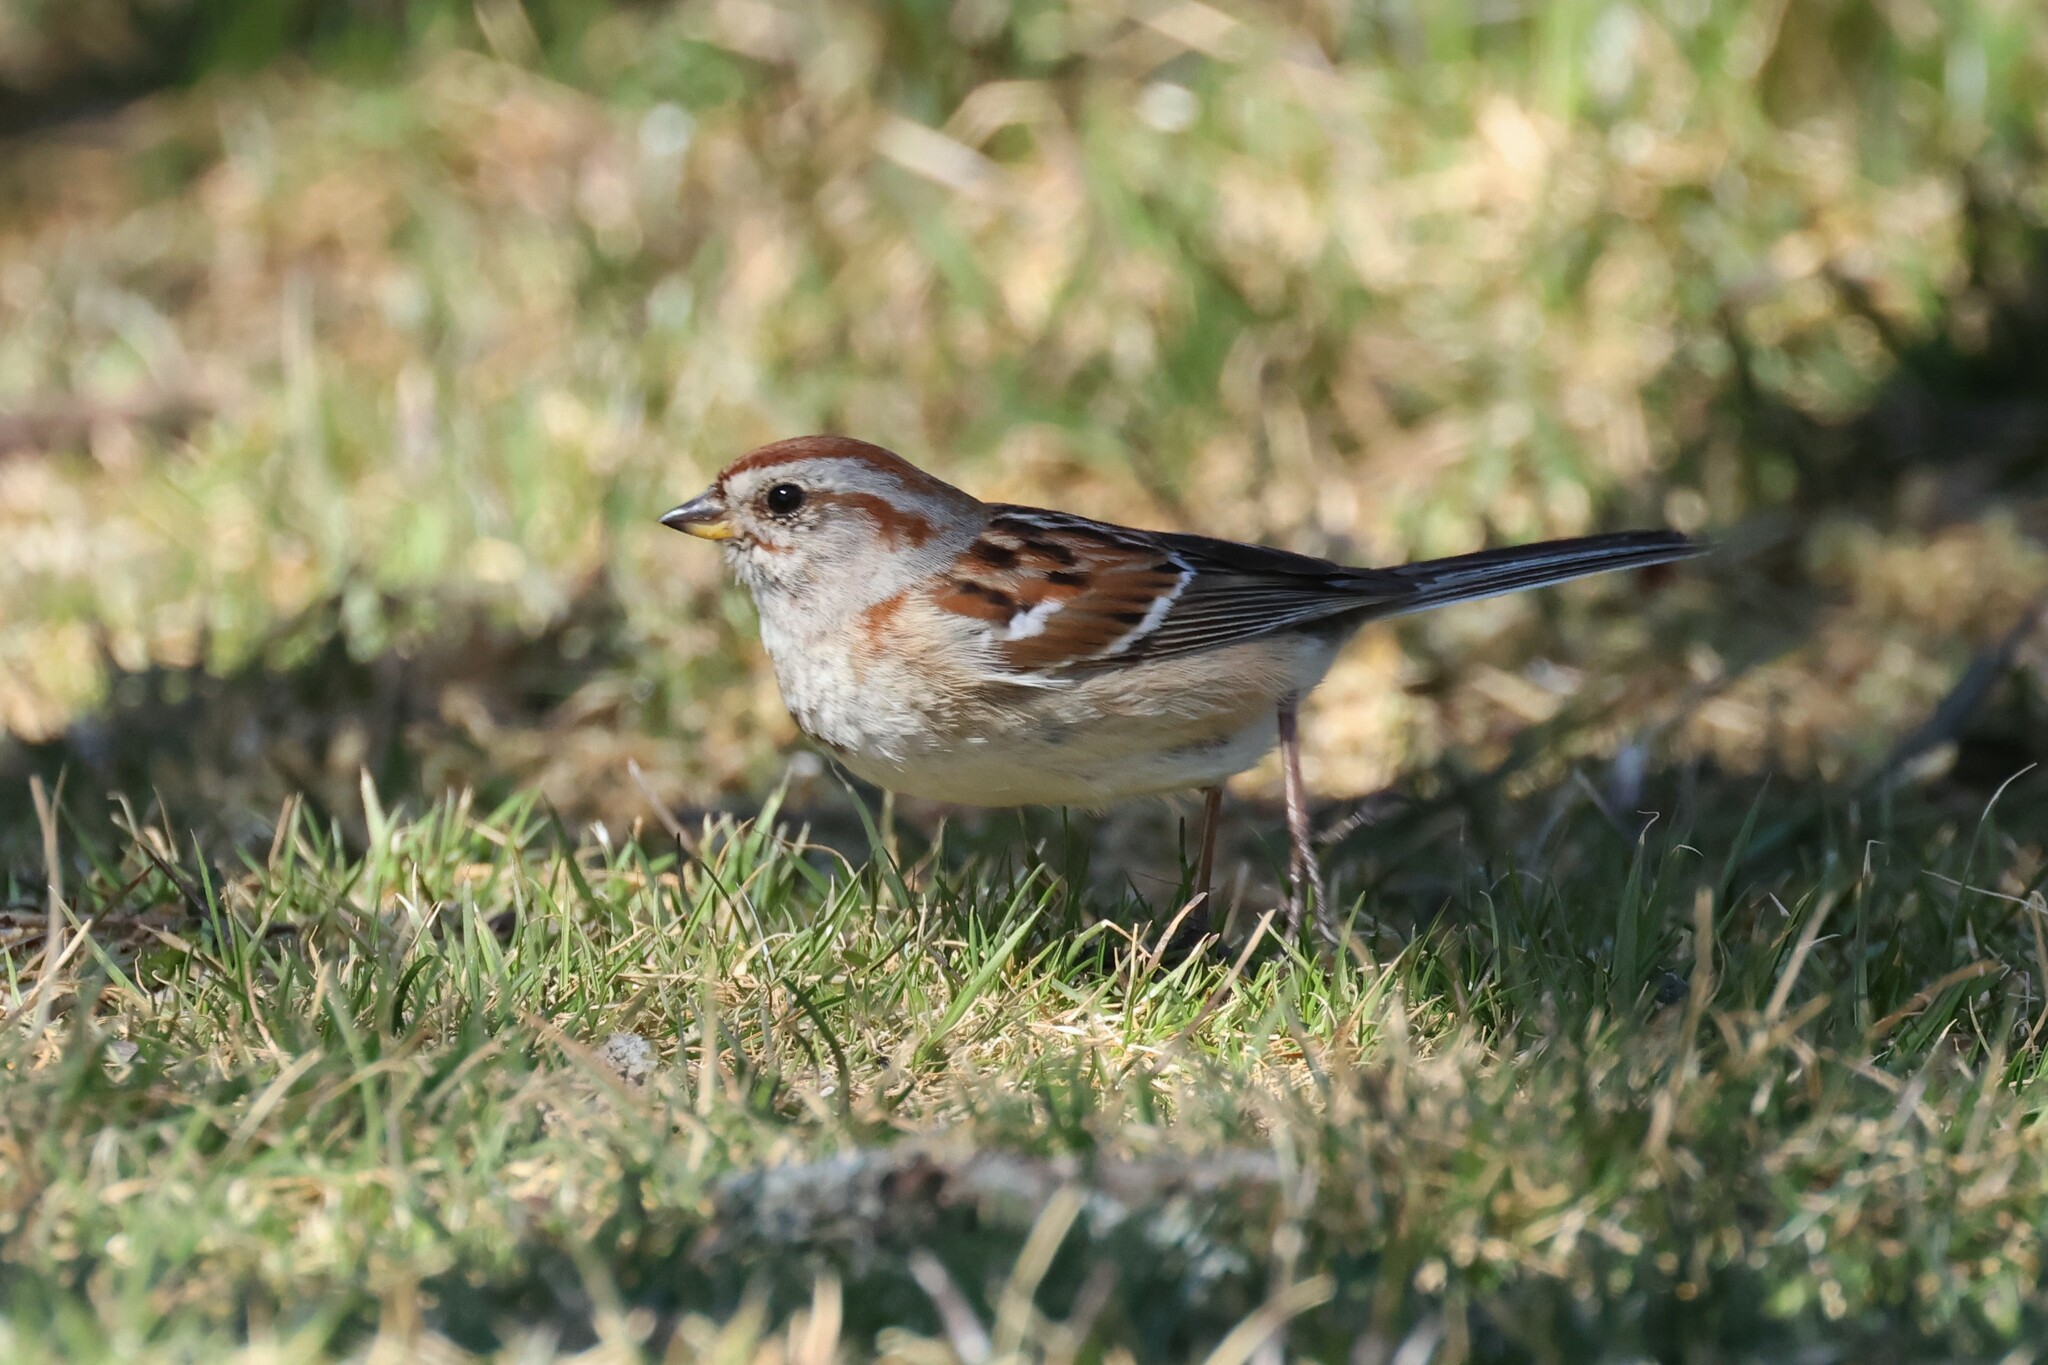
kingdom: Animalia
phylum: Chordata
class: Aves
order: Passeriformes
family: Passerellidae
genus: Spizelloides
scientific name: Spizelloides arborea
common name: American tree sparrow
